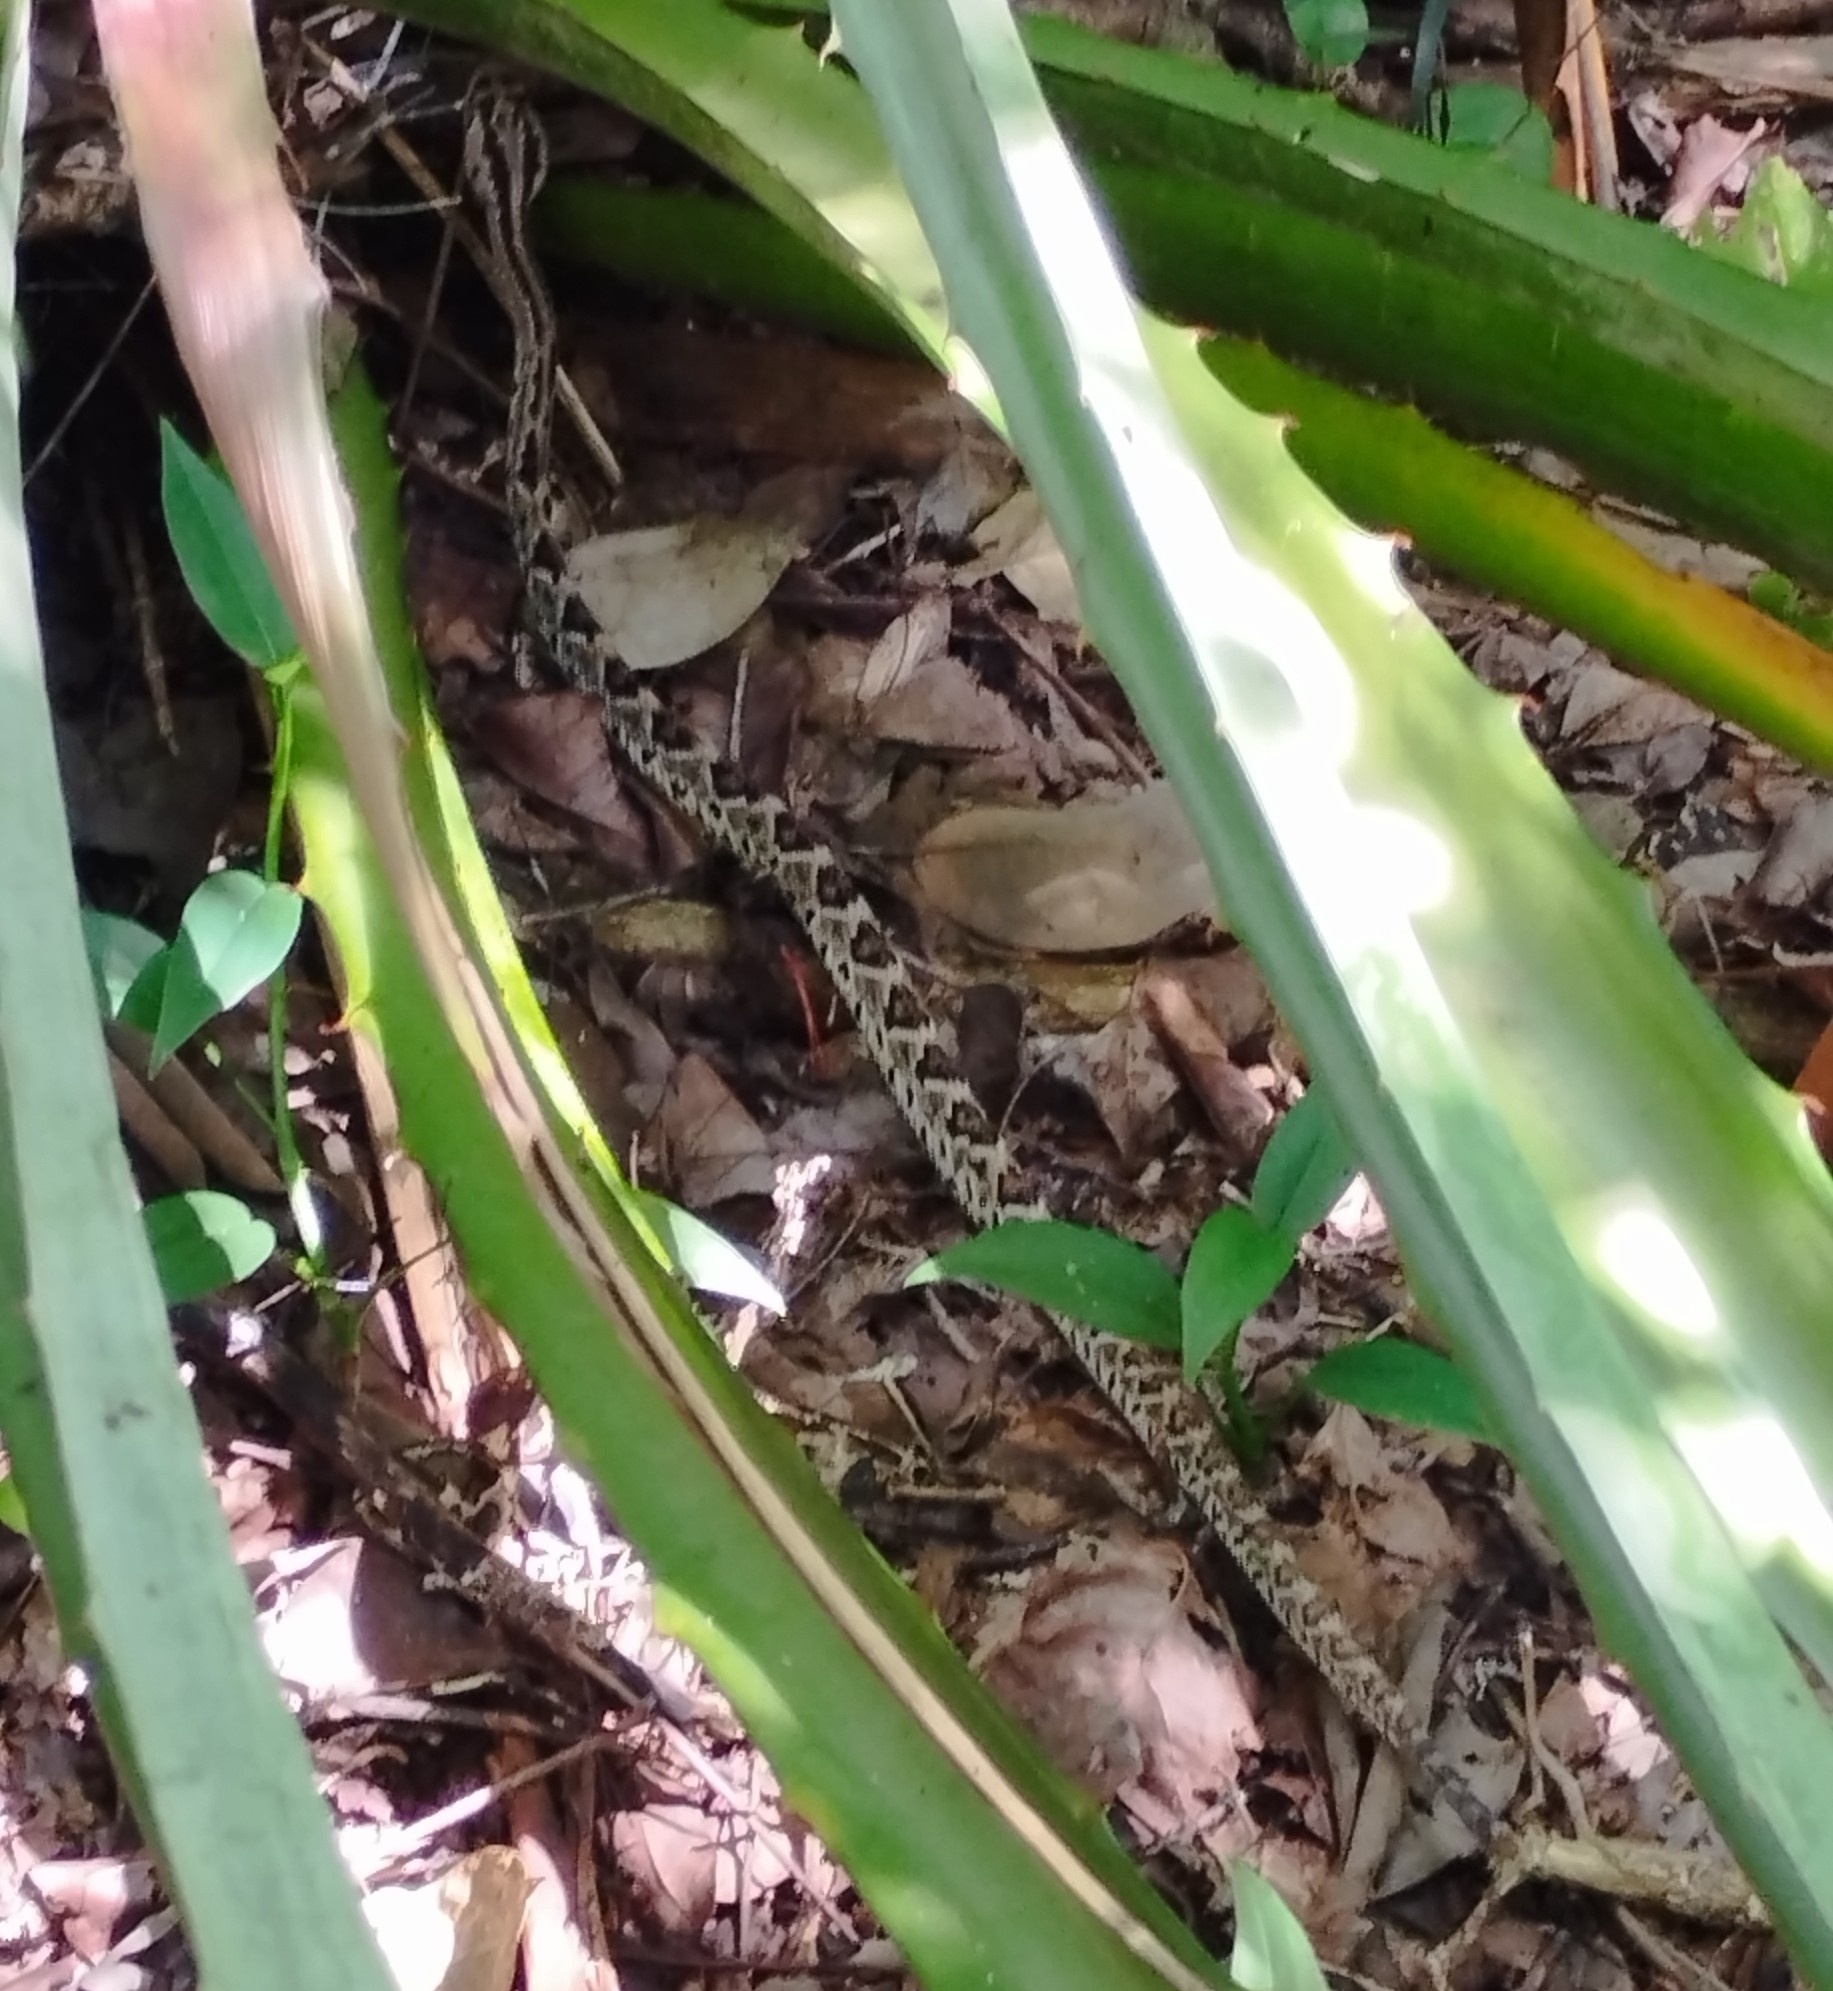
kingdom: Animalia
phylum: Chordata
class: Squamata
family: Viperidae
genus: Crotalus
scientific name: Crotalus tzabcan
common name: Yucatan neotropical rattlesnake
